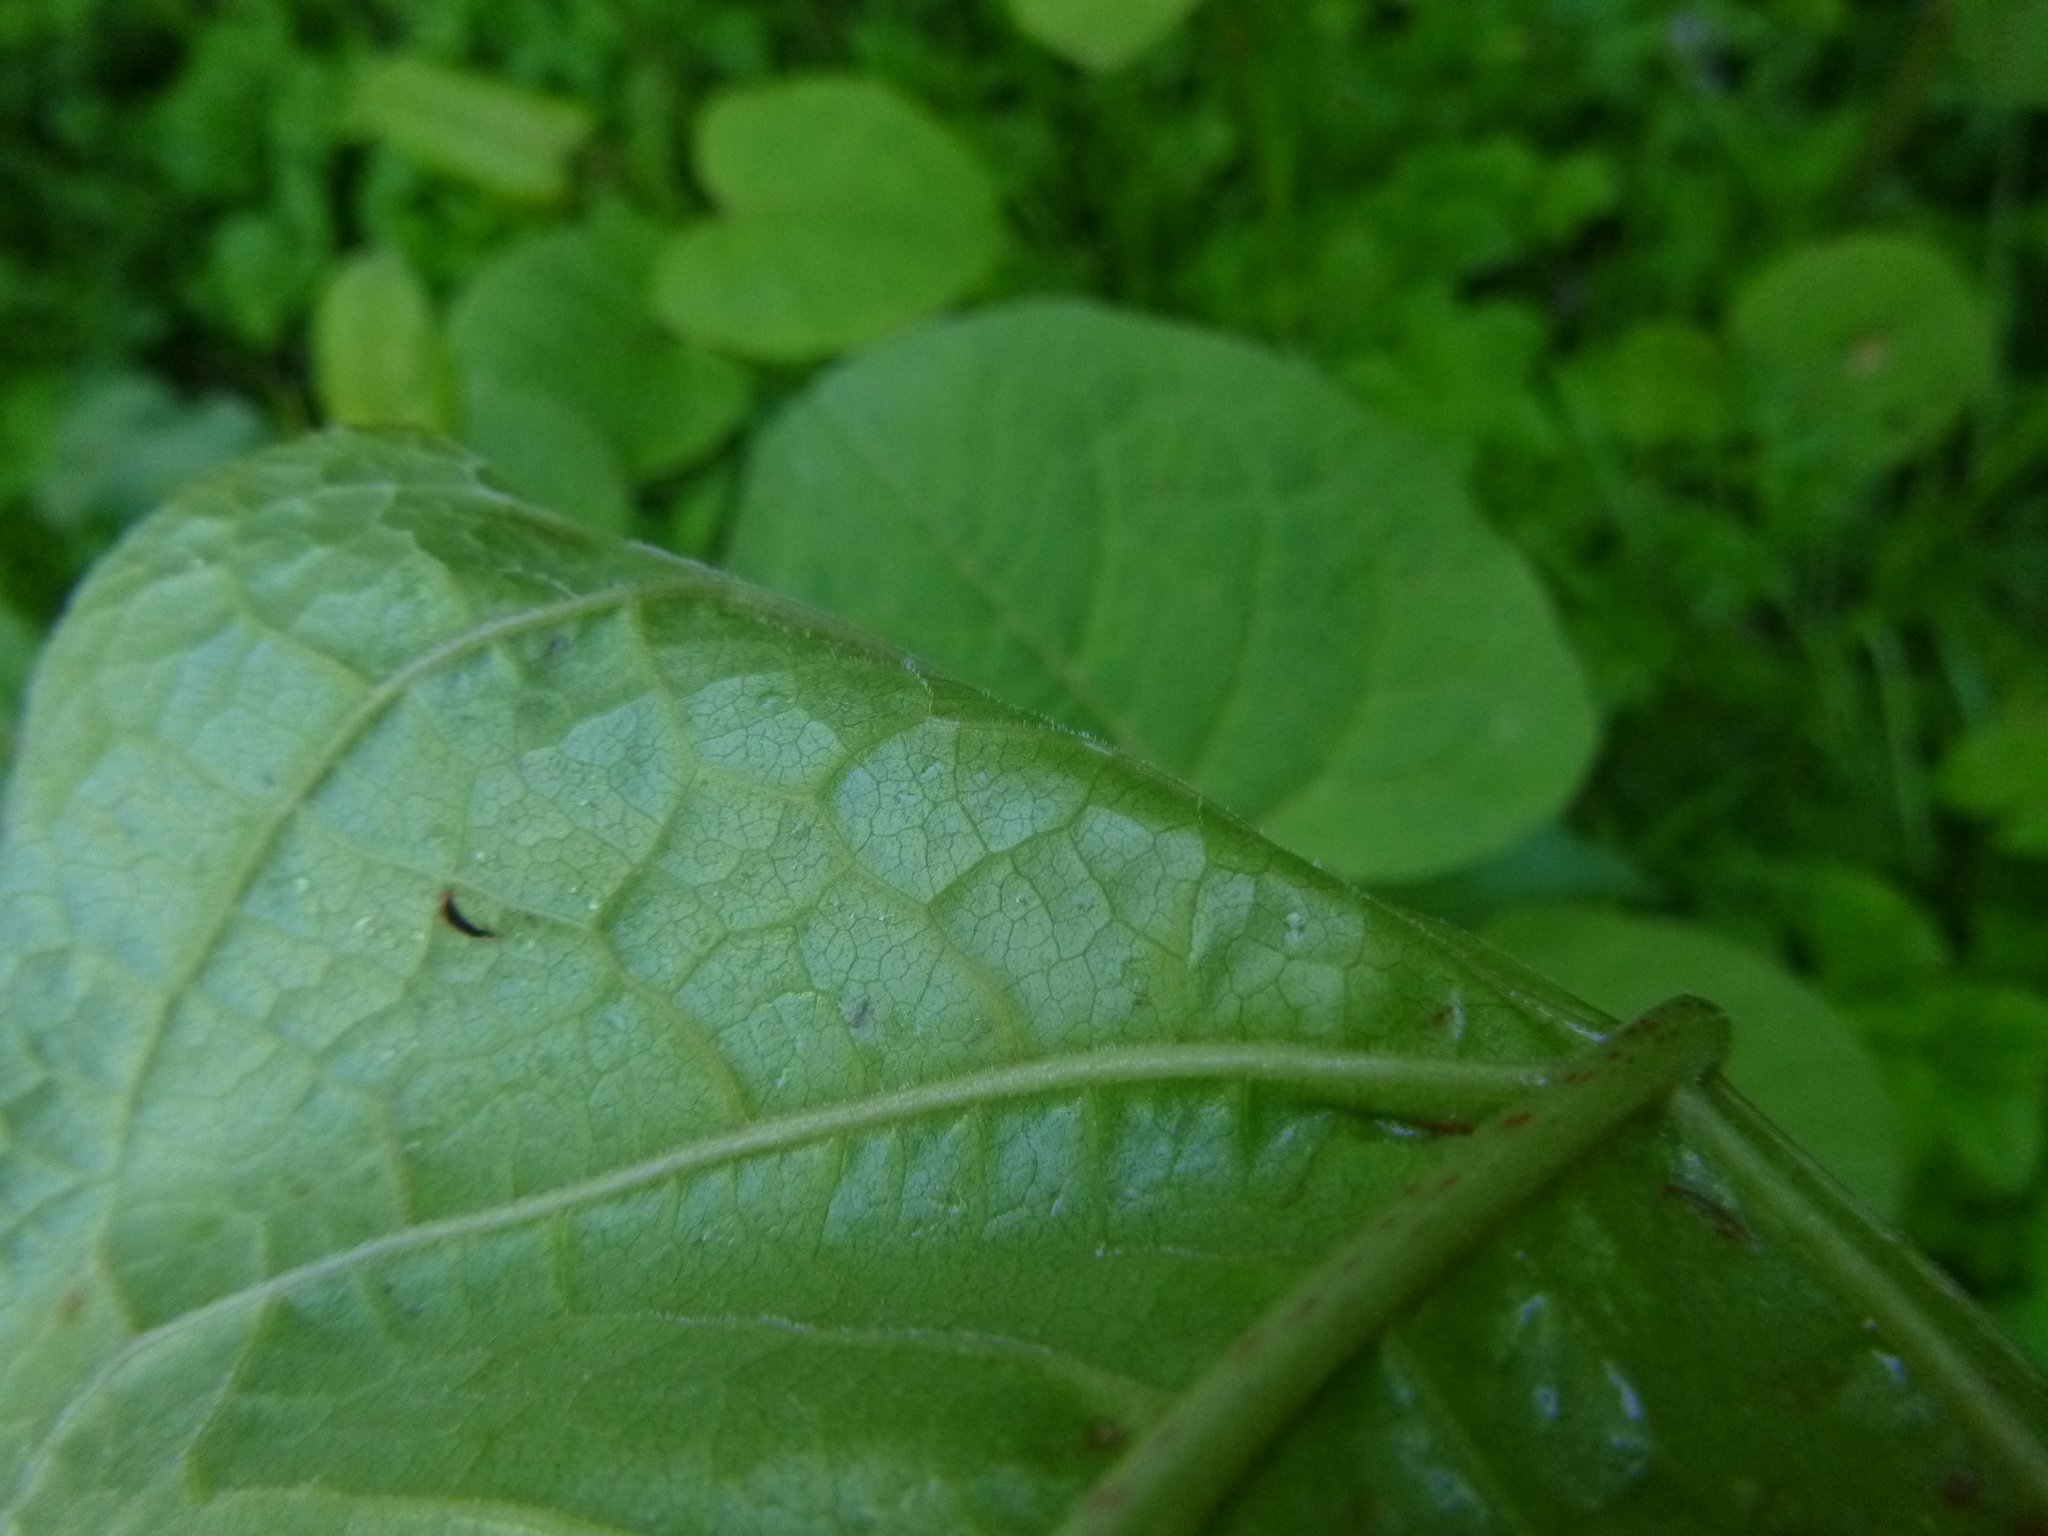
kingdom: Plantae
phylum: Tracheophyta
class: Magnoliopsida
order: Caryophyllales
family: Polygonaceae
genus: Reynoutria
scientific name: Reynoutria bohemica
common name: Bohemian knotweed
